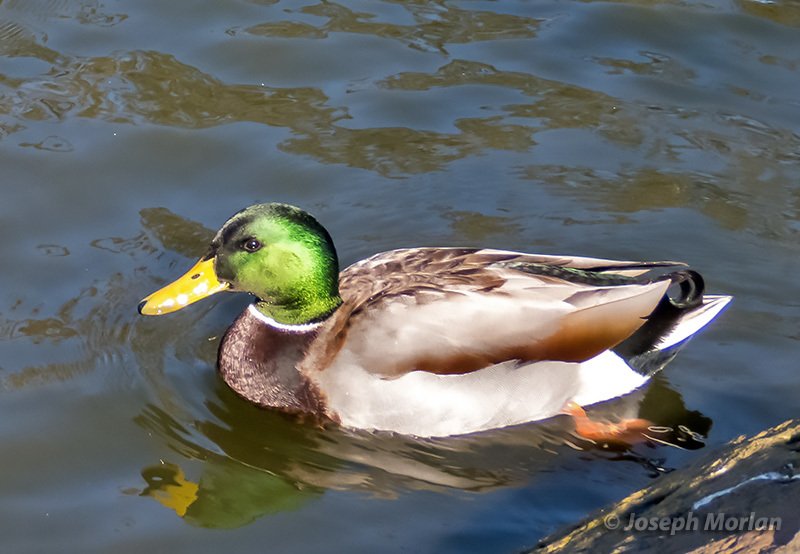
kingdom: Animalia
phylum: Chordata
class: Aves
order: Anseriformes
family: Anatidae
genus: Anas
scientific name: Anas platyrhynchos
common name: Mallard
